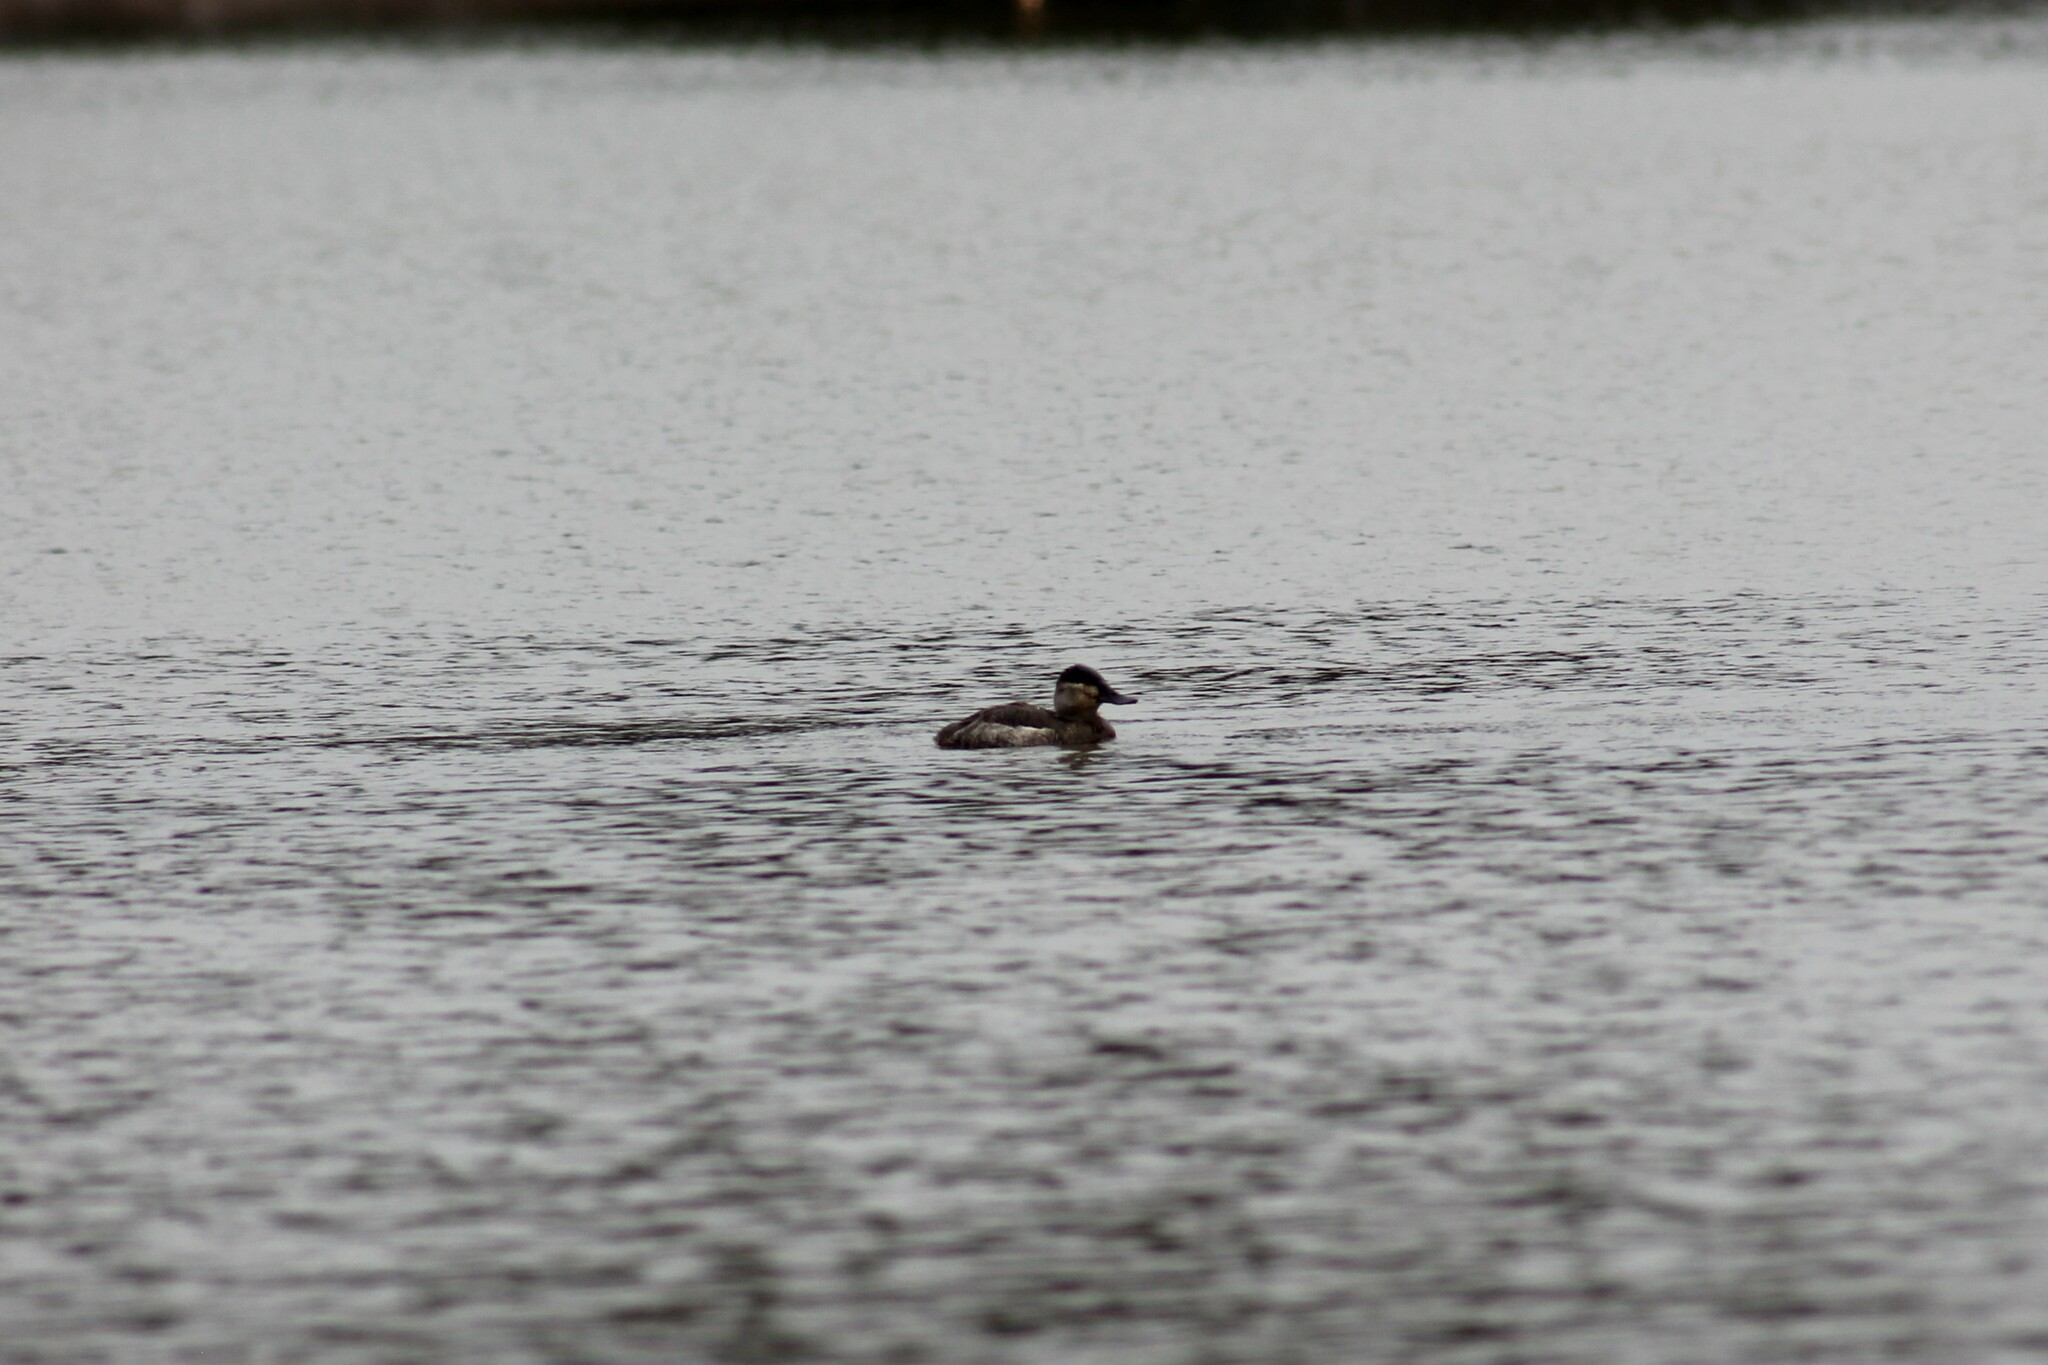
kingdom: Animalia
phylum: Chordata
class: Aves
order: Anseriformes
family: Anatidae
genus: Oxyura
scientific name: Oxyura jamaicensis
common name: Ruddy duck
